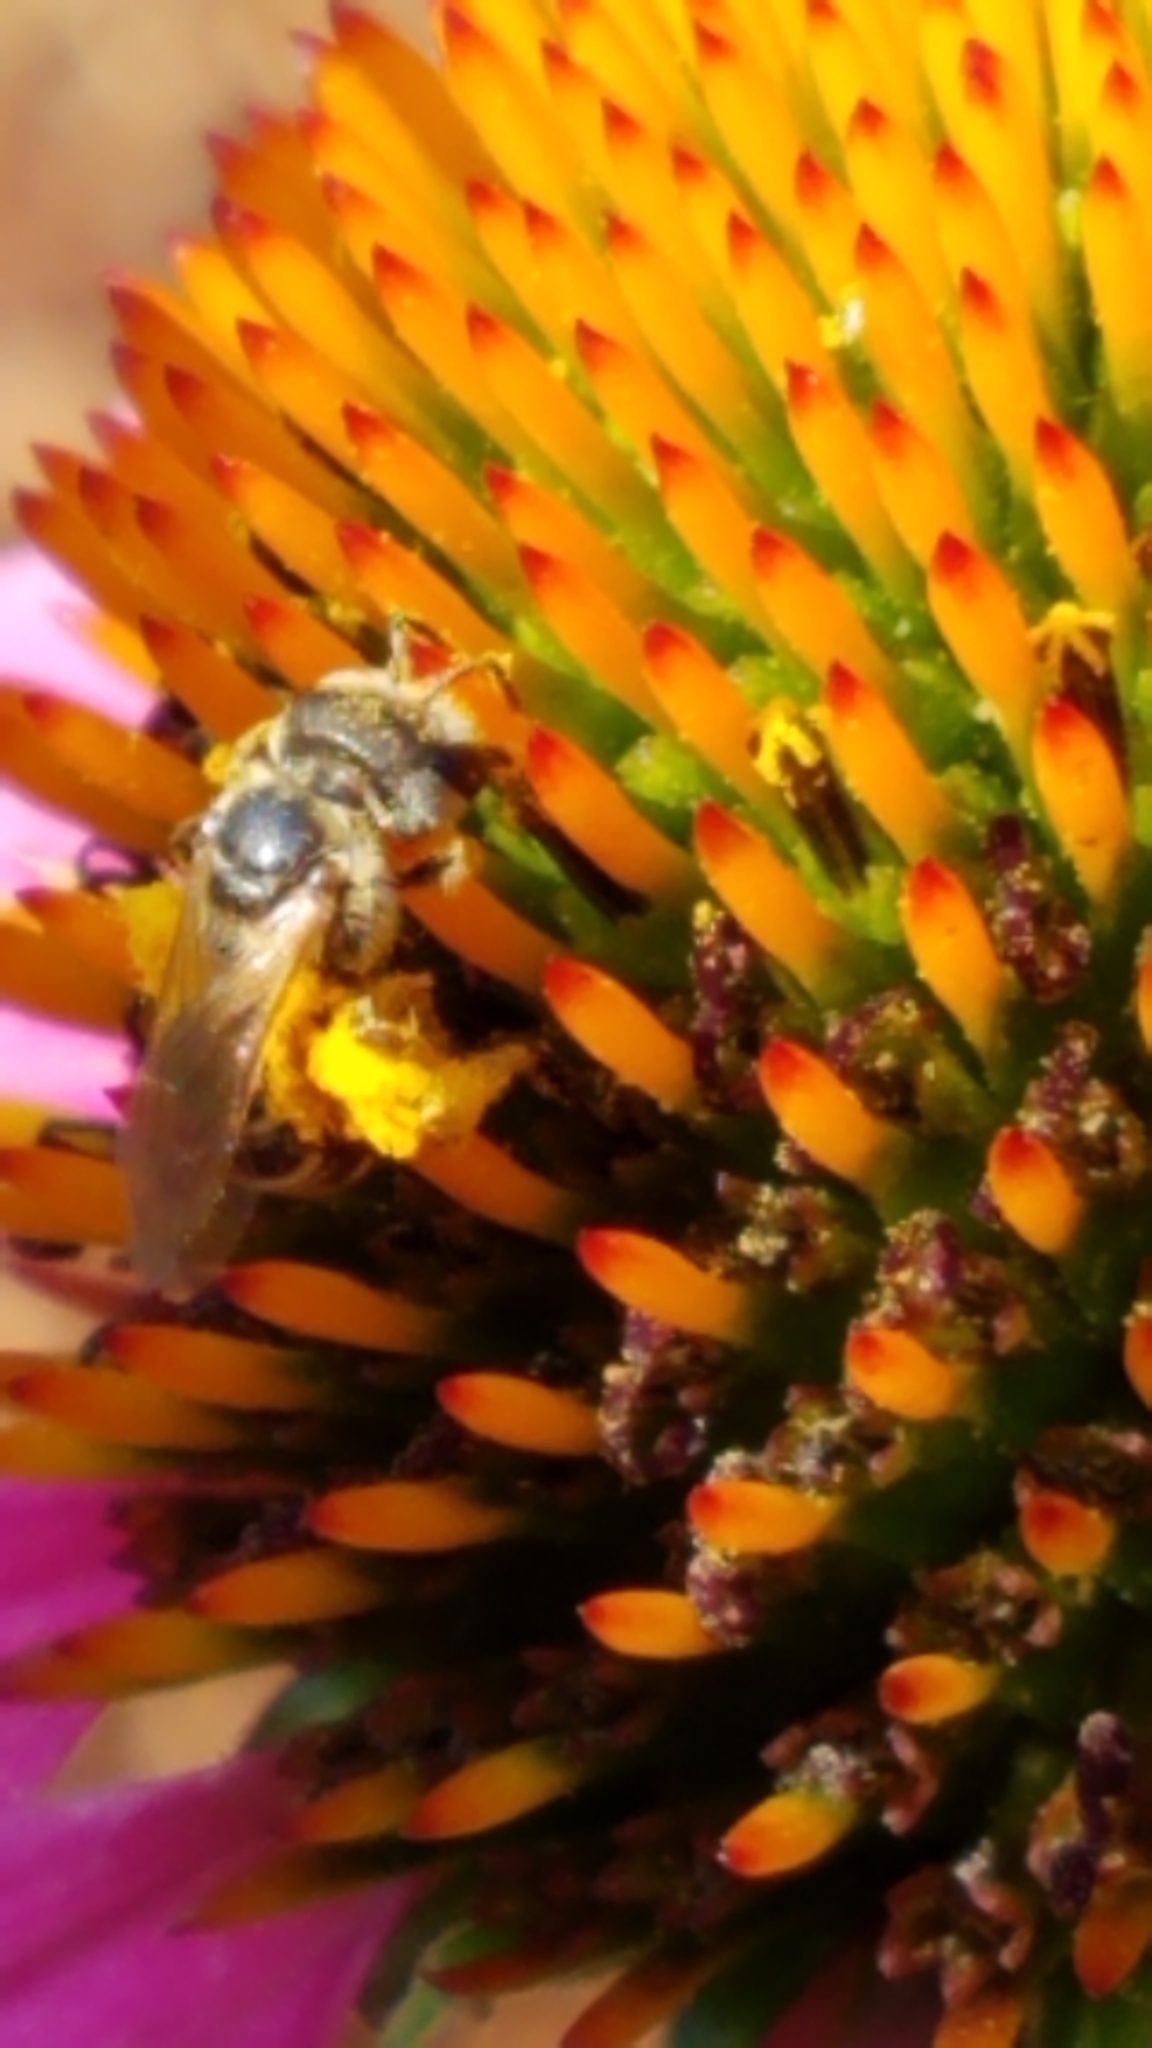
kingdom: Animalia
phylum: Arthropoda
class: Insecta
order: Hymenoptera
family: Halictidae
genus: Halictus
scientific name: Halictus ligatus
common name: Ligated furrow bee
